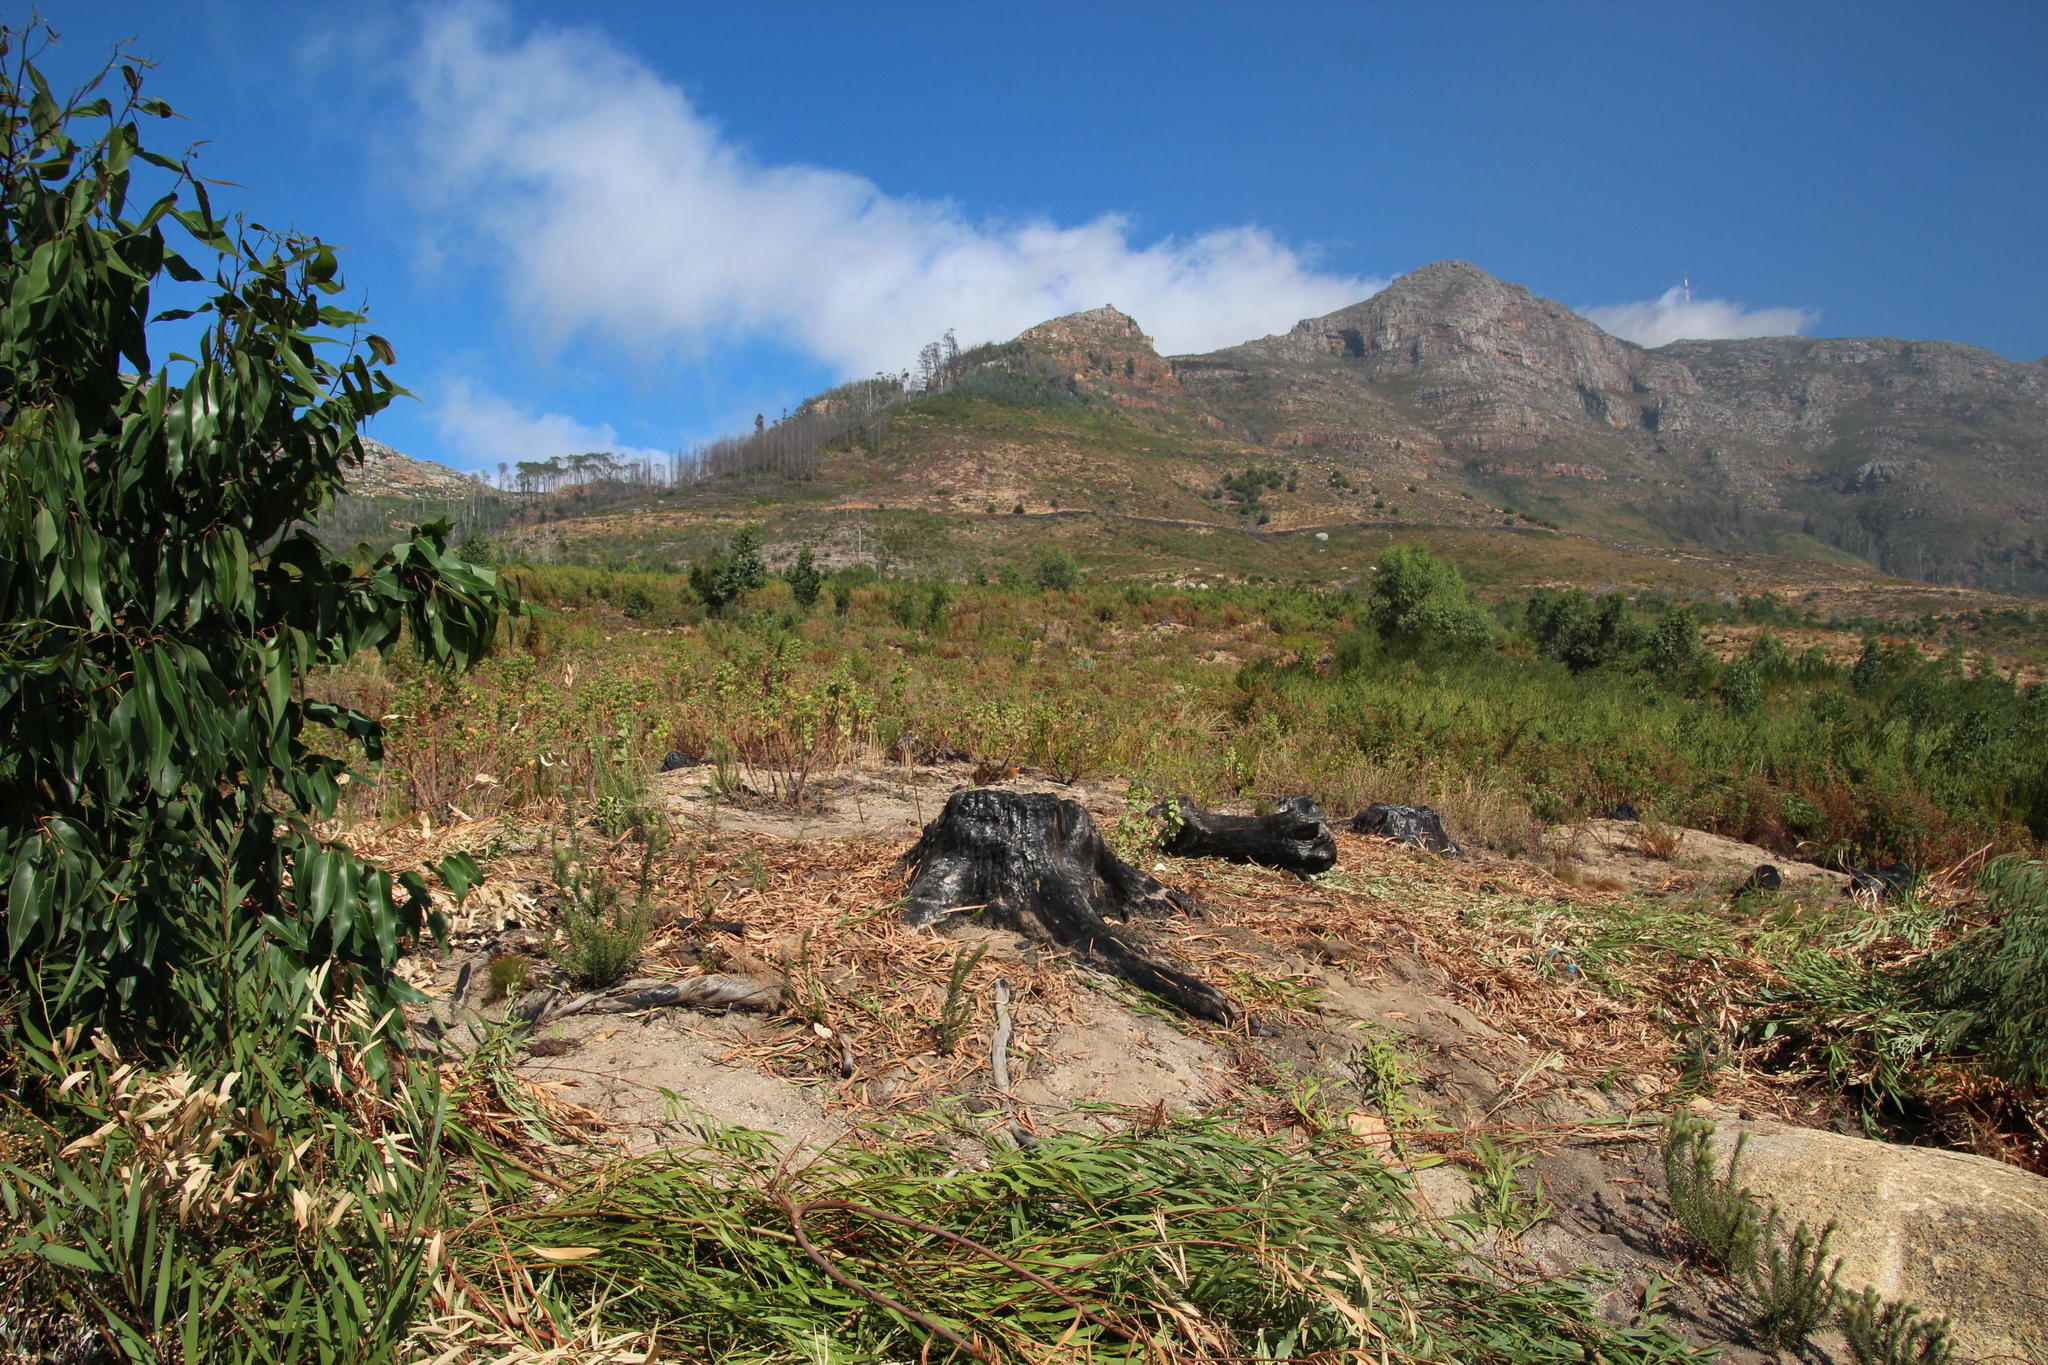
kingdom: Plantae
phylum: Tracheophyta
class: Magnoliopsida
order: Fabales
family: Fabaceae
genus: Acacia
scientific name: Acacia longifolia
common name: Sydney golden wattle
